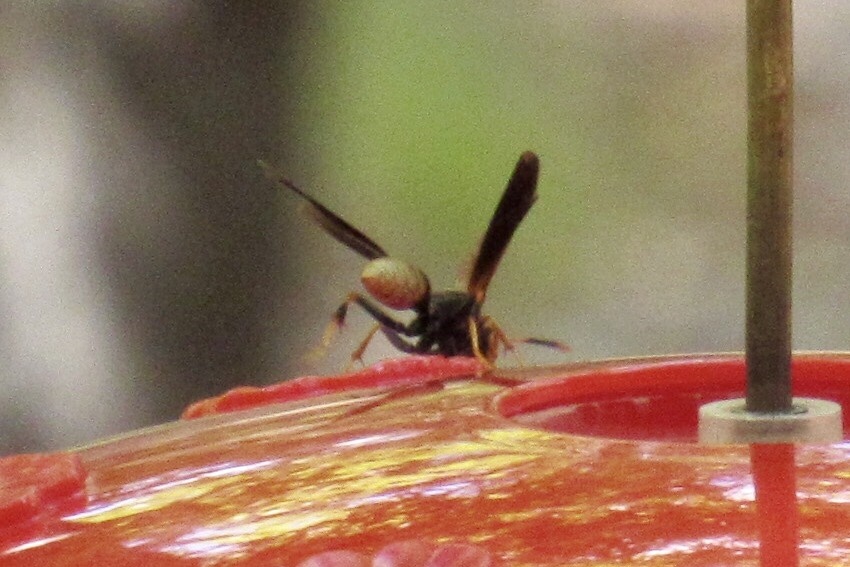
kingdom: Animalia
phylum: Arthropoda
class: Insecta
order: Hymenoptera
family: Eumenidae
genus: Polistes
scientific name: Polistes comanchus
